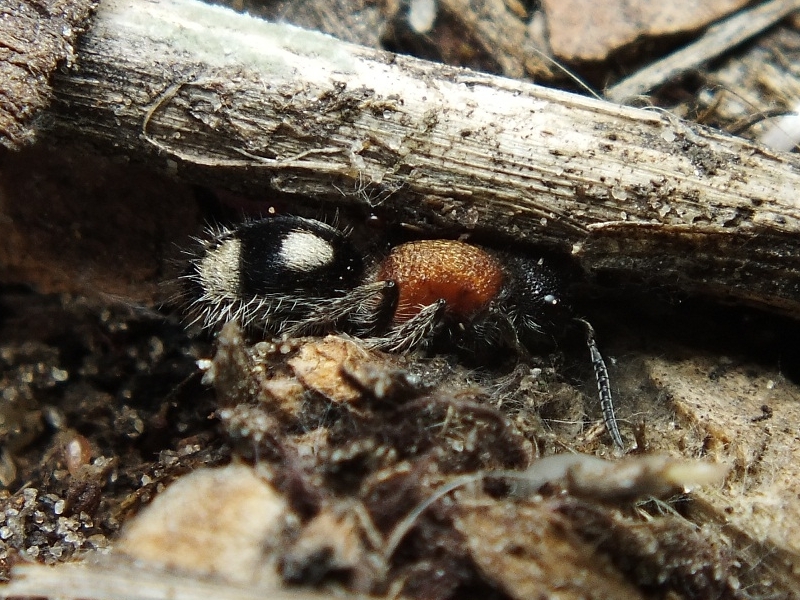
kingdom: Animalia
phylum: Arthropoda
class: Insecta
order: Hymenoptera
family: Mutillidae
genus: Trogaspidia
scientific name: Trogaspidia catanensis
